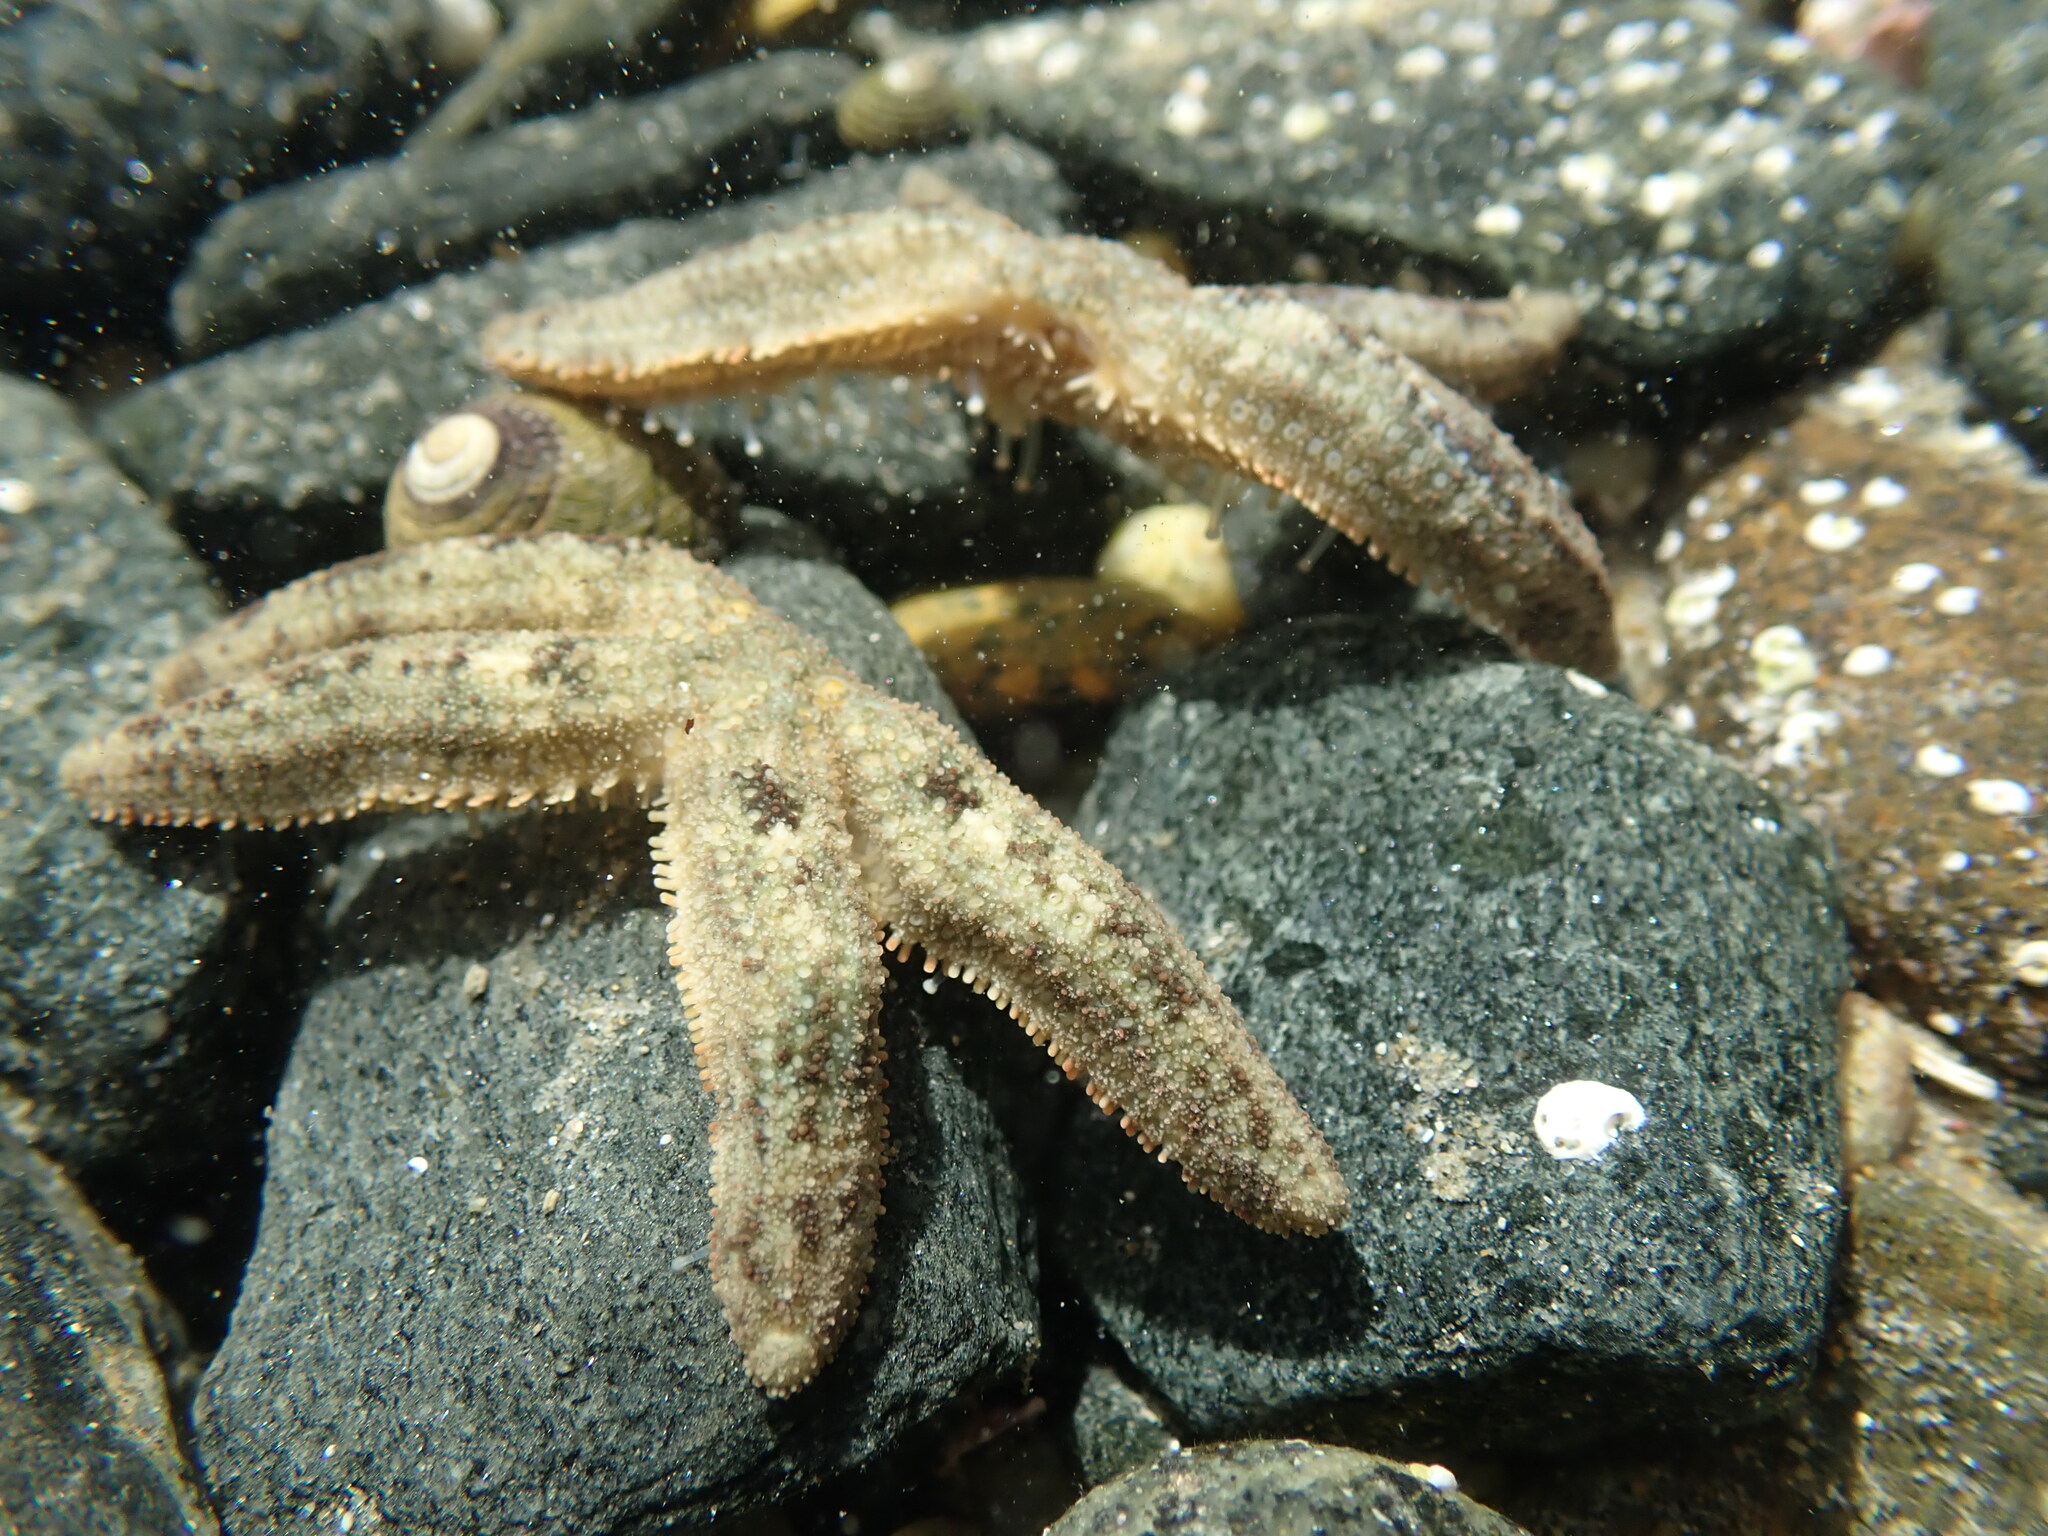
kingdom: Animalia
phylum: Echinodermata
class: Asteroidea
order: Forcipulatida
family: Stichasteridae
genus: Allostichaster
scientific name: Allostichaster polyplax
